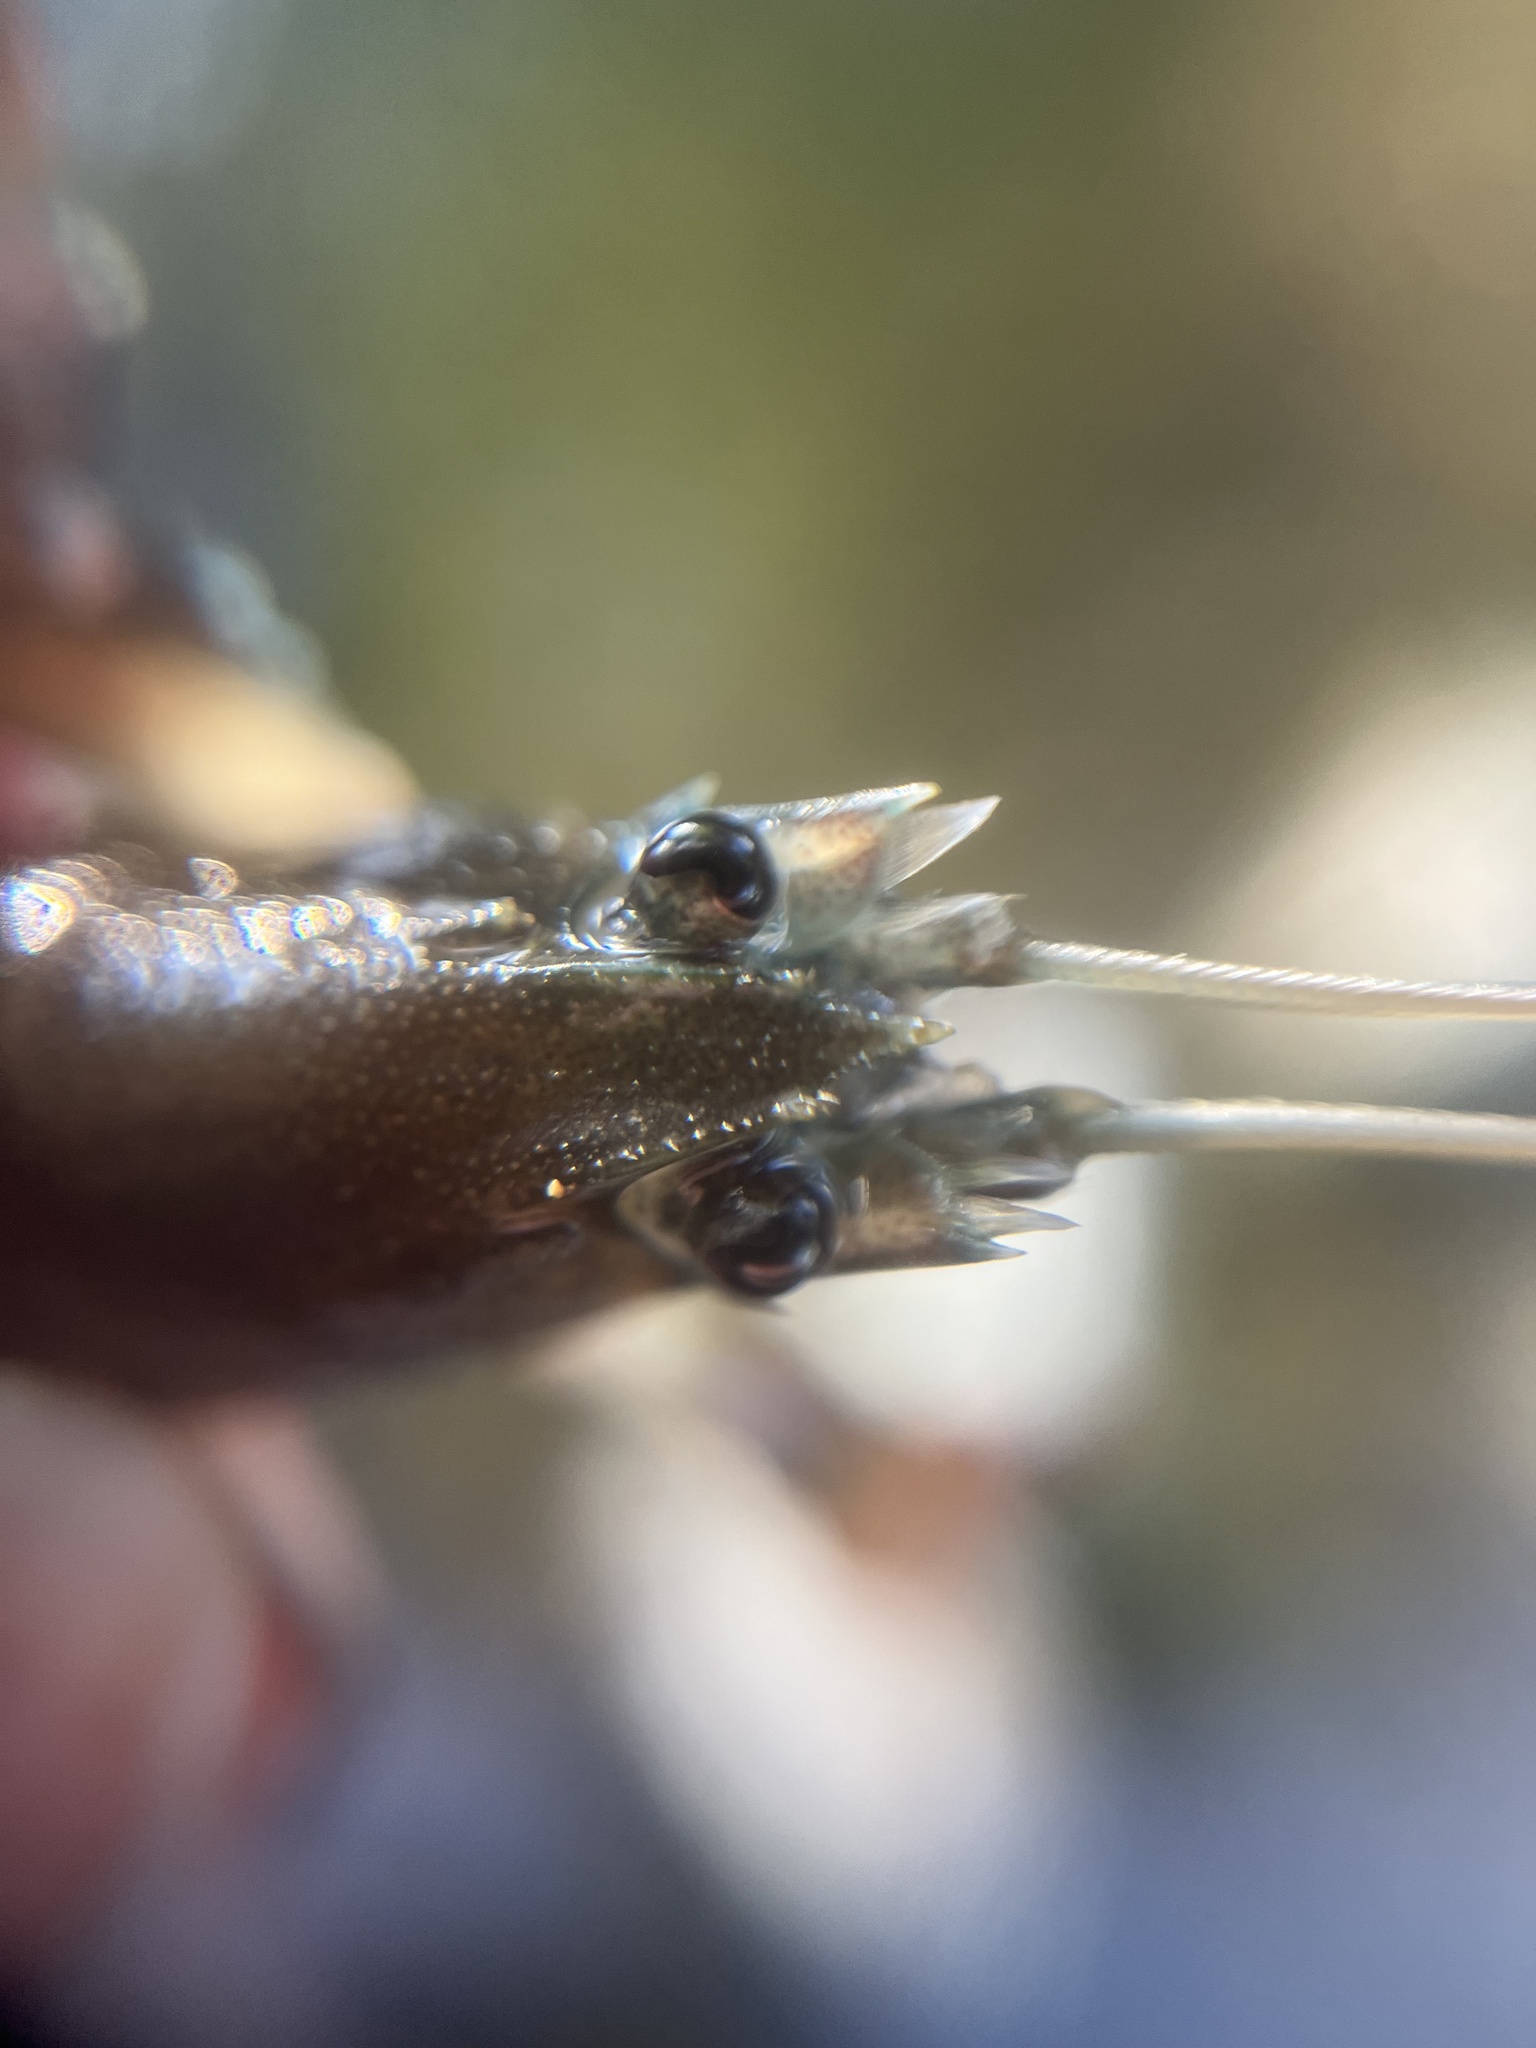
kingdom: Animalia
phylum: Arthropoda
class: Malacostraca
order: Decapoda
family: Astacidae
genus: Pacifastacus
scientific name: Pacifastacus leniusculus
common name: Signal crayfish
